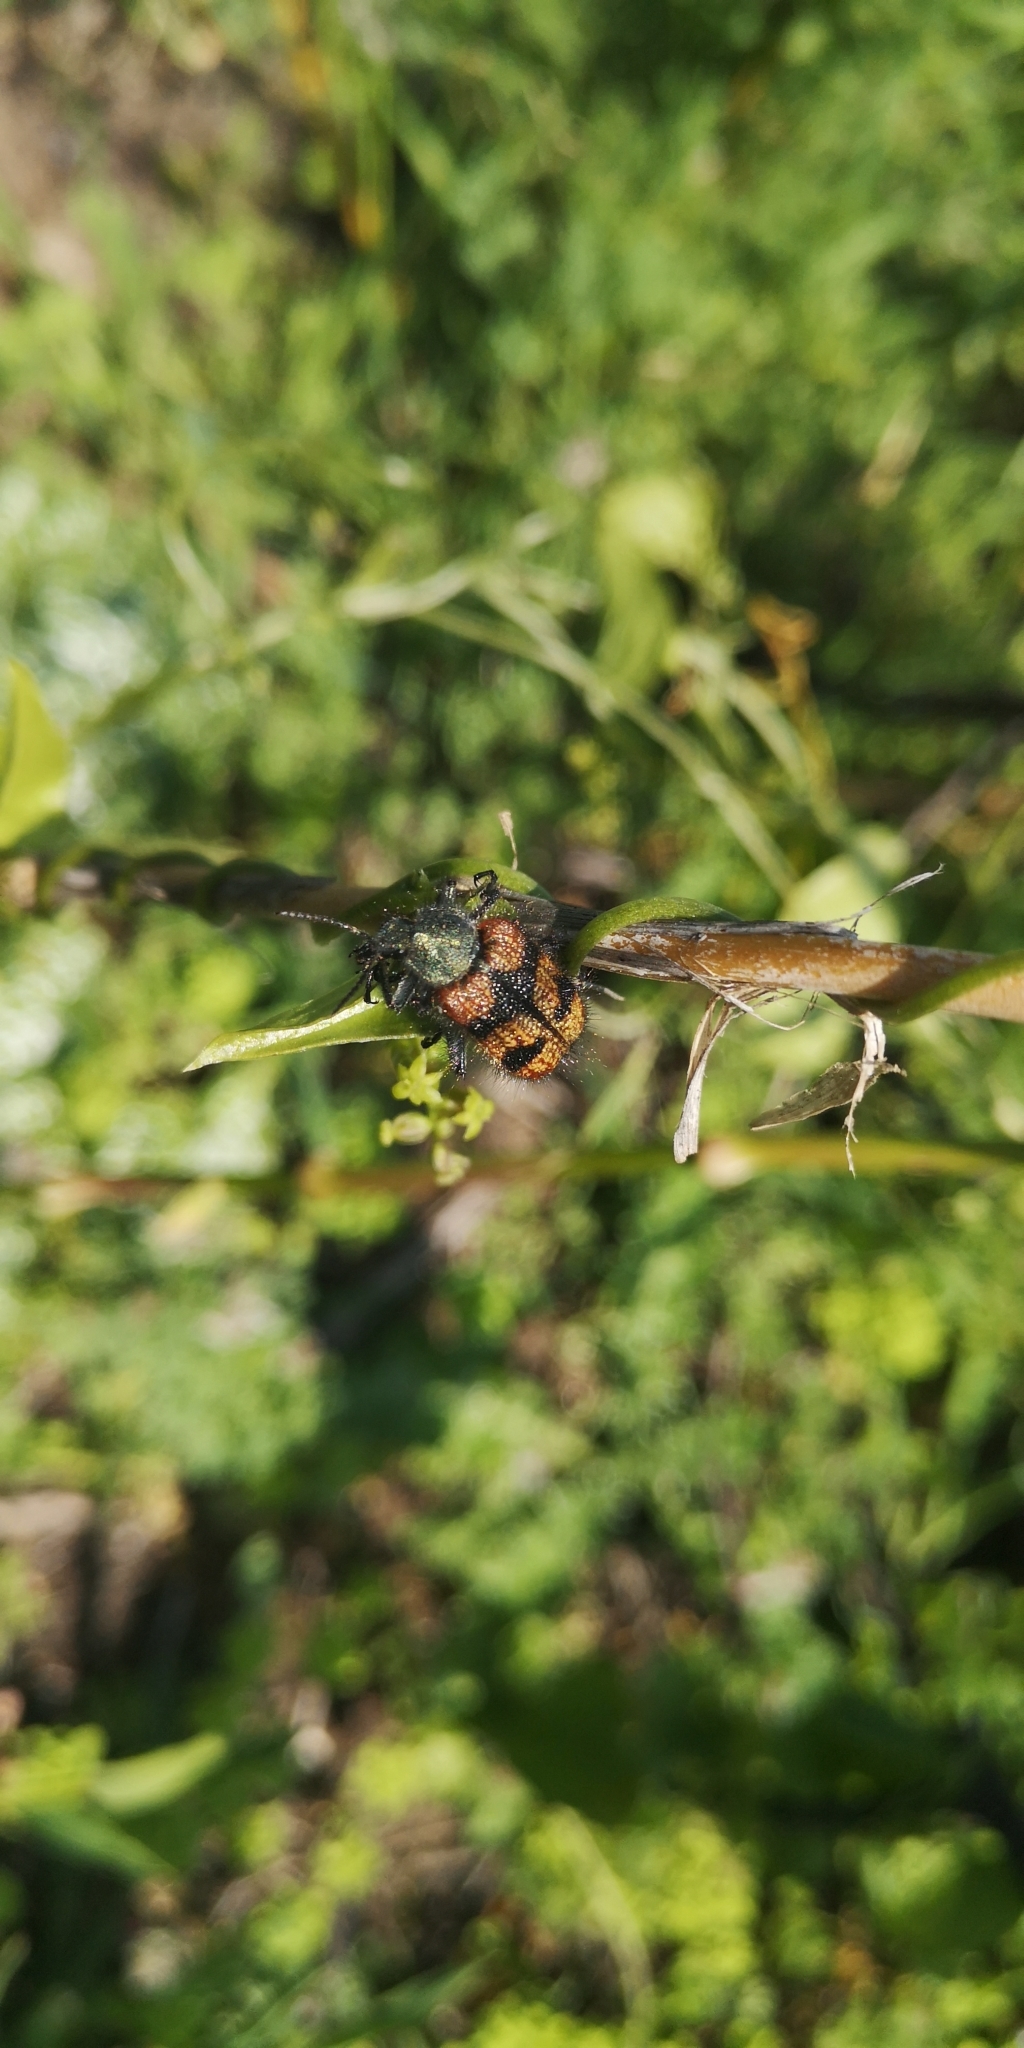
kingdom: Animalia
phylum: Arthropoda
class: Insecta
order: Coleoptera
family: Melyridae
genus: Astylus
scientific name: Astylus
